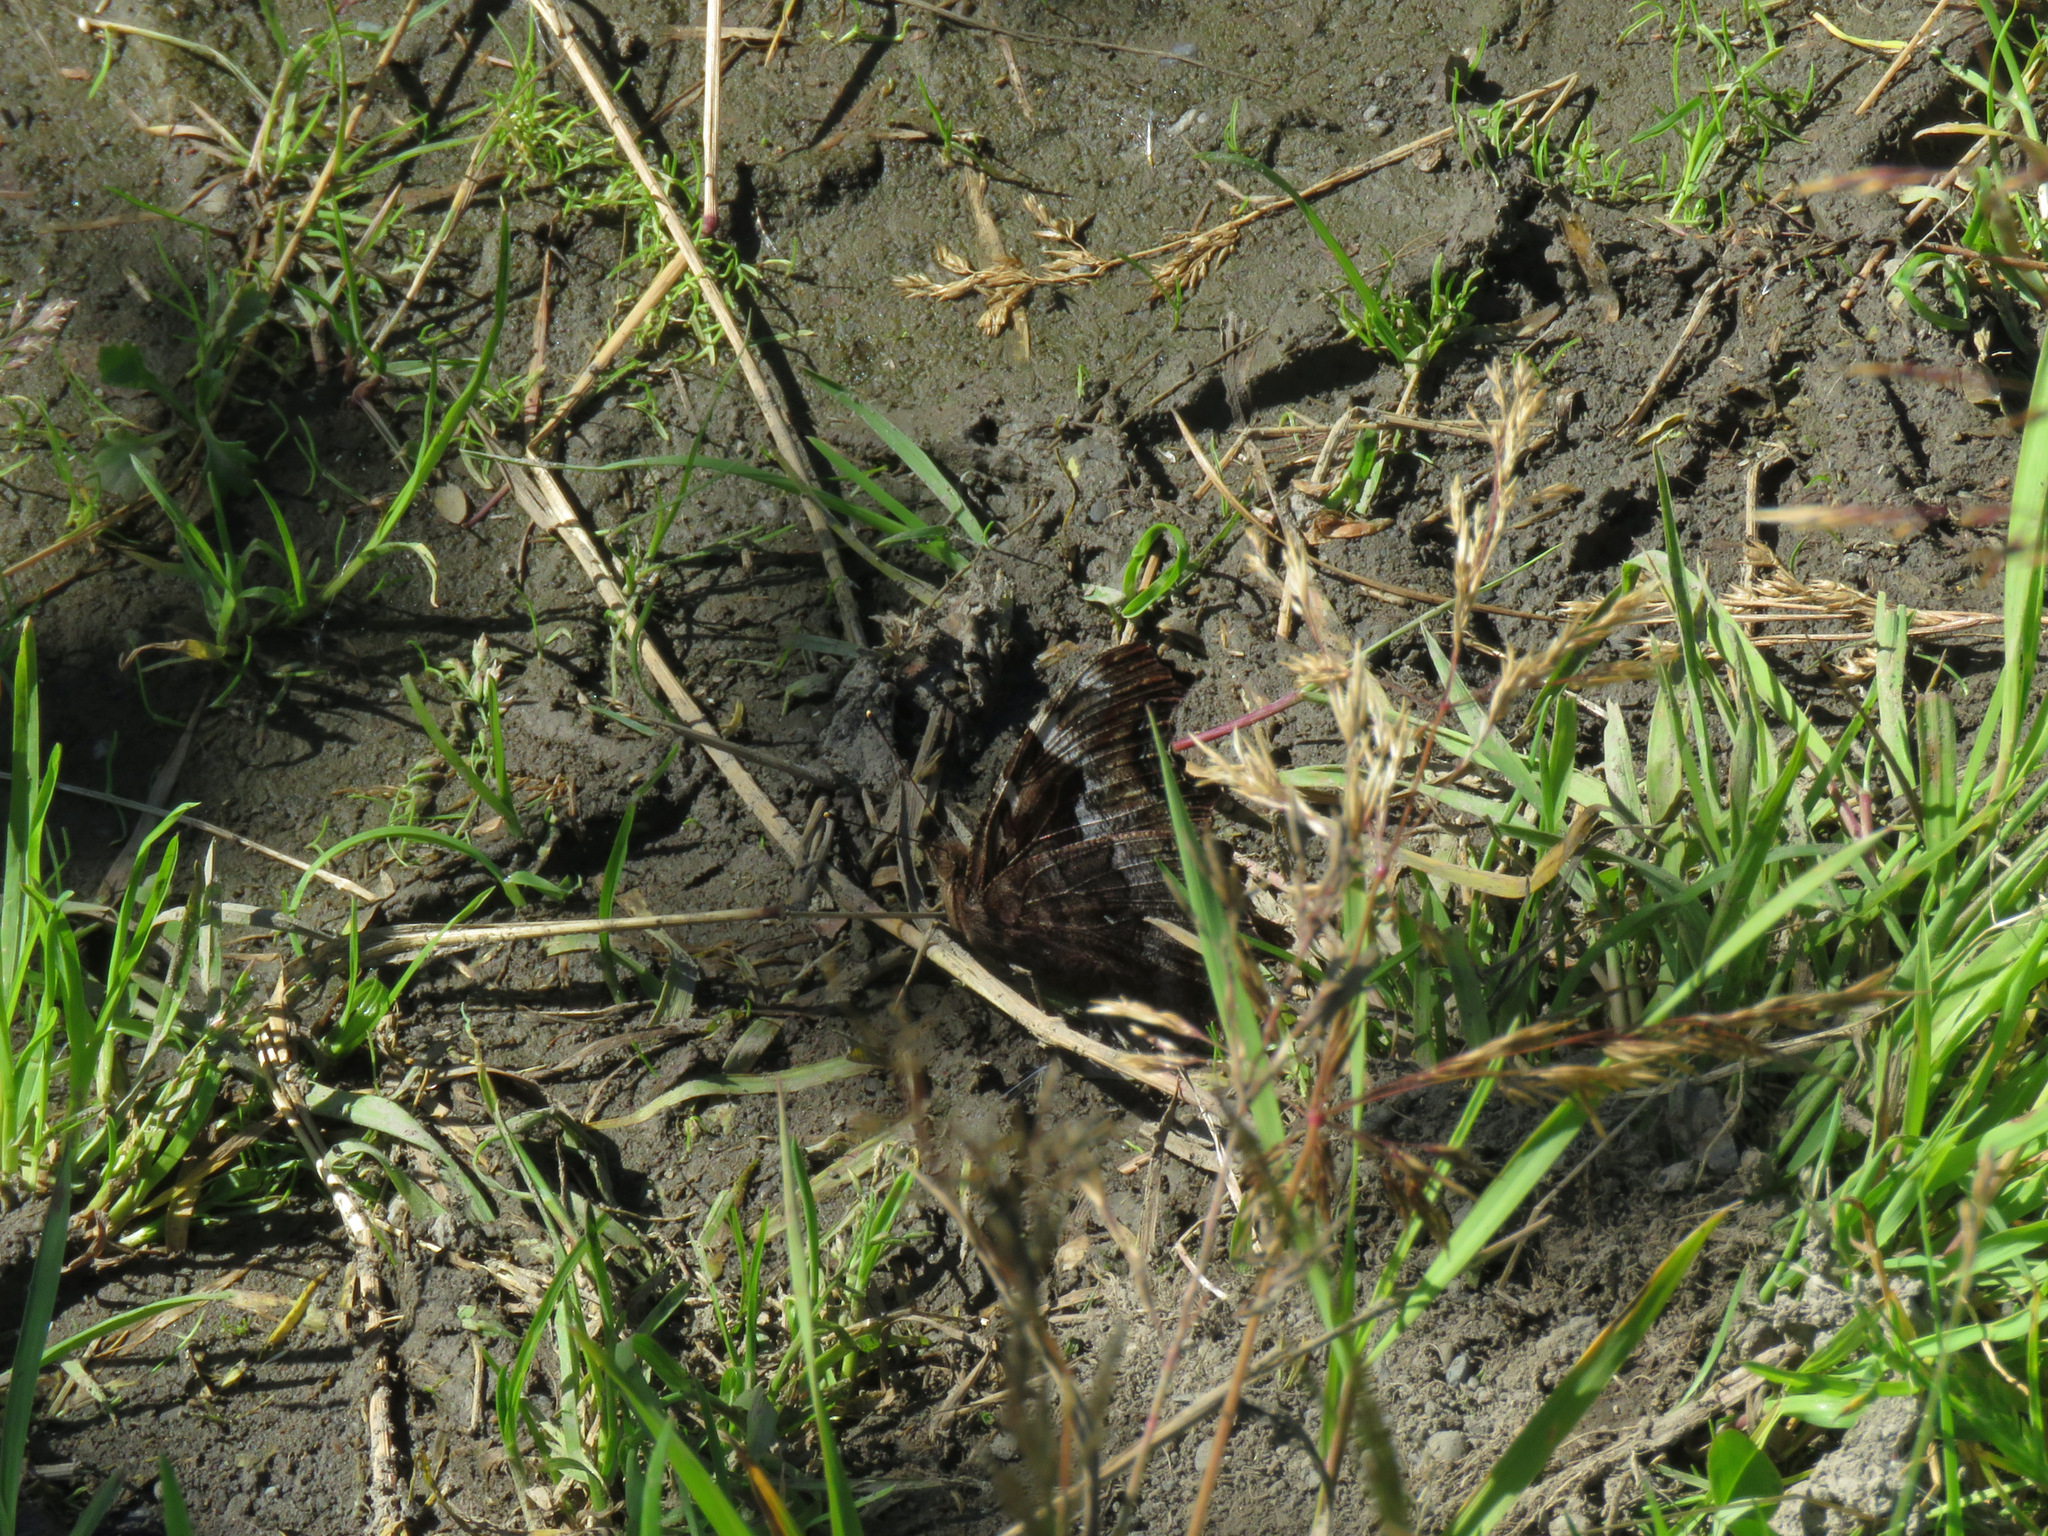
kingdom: Animalia
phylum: Arthropoda
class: Insecta
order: Lepidoptera
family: Nymphalidae
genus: Polygonia
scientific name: Polygonia vaualbum
